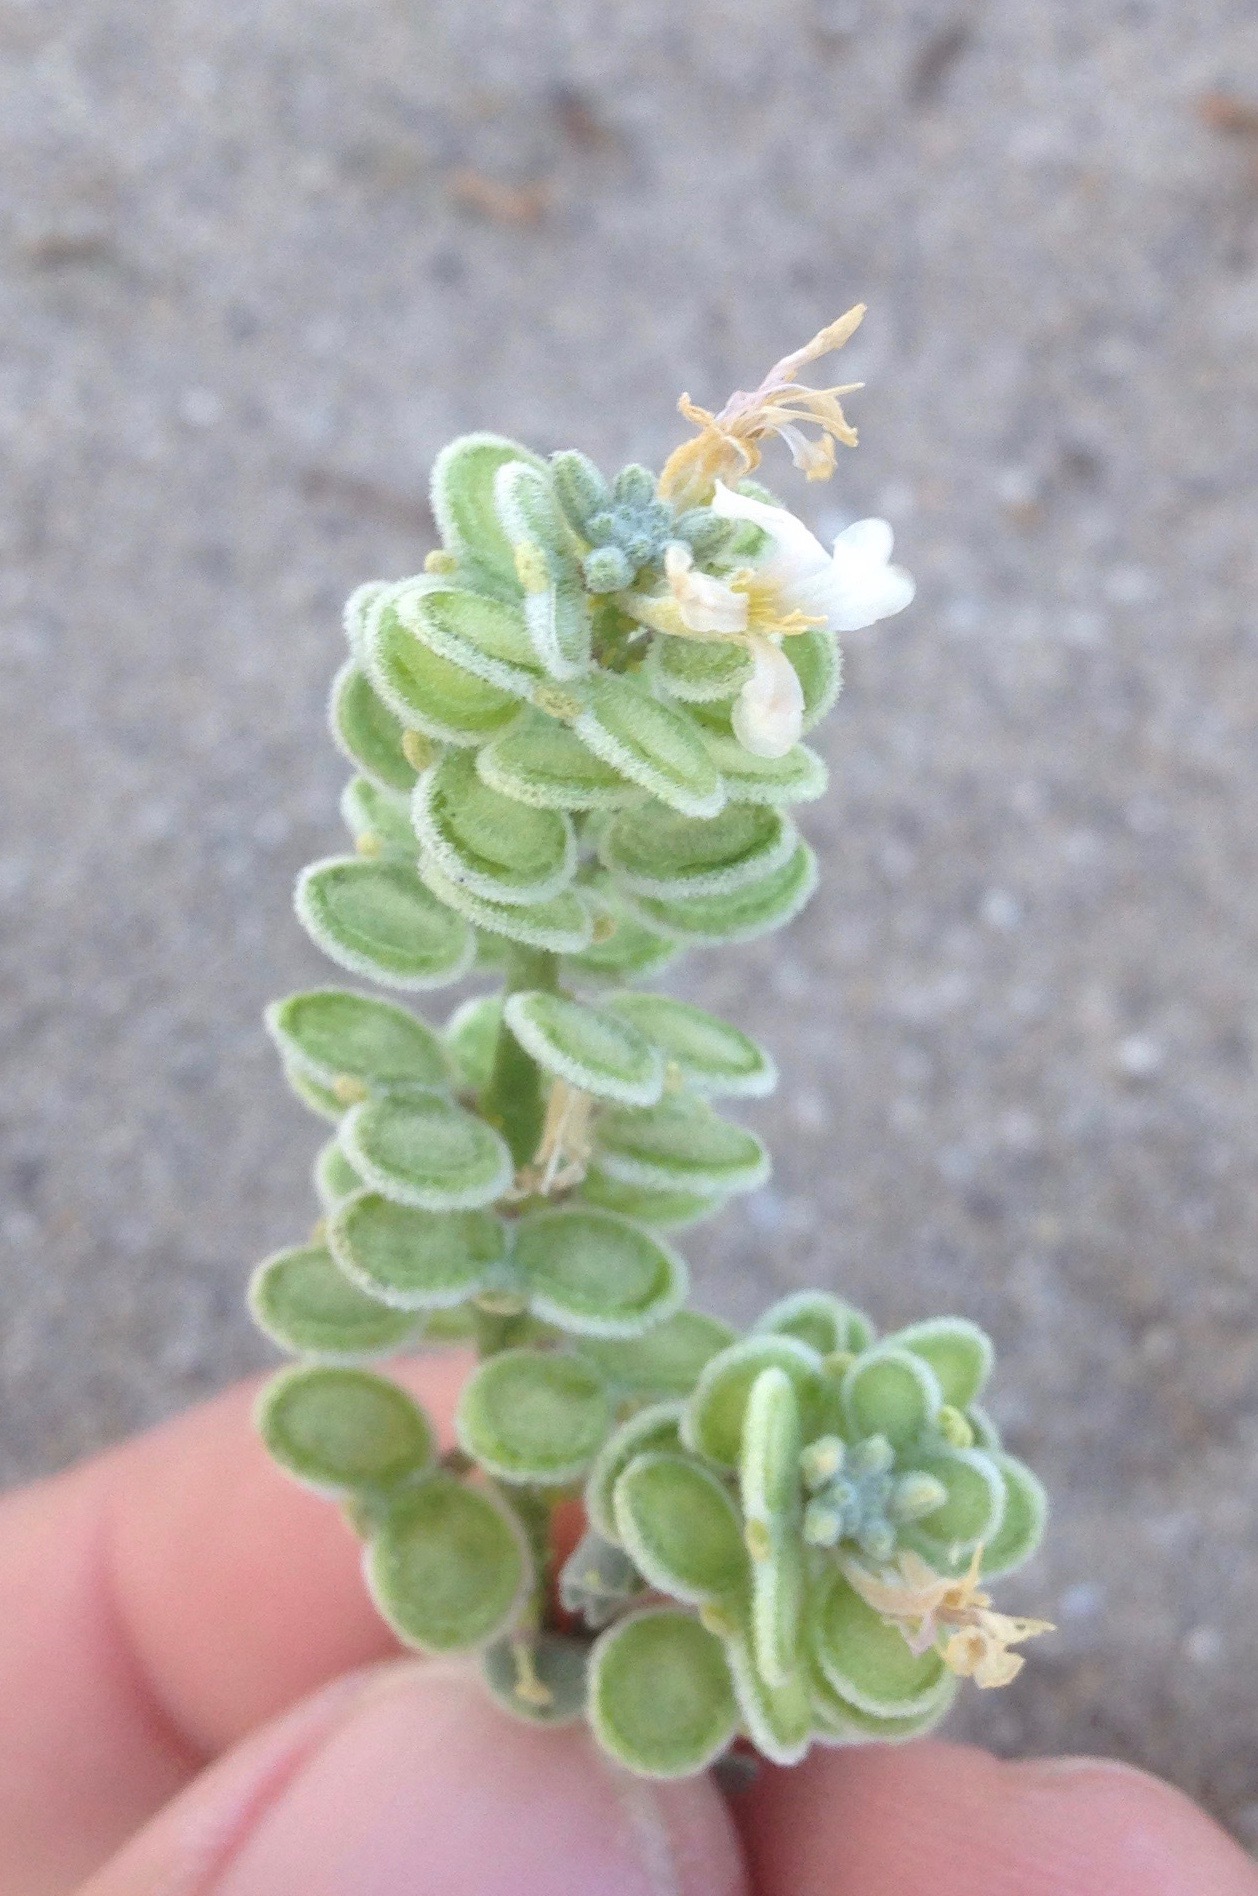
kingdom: Plantae
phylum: Tracheophyta
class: Magnoliopsida
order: Brassicales
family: Brassicaceae
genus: Dithyrea
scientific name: Dithyrea californica
